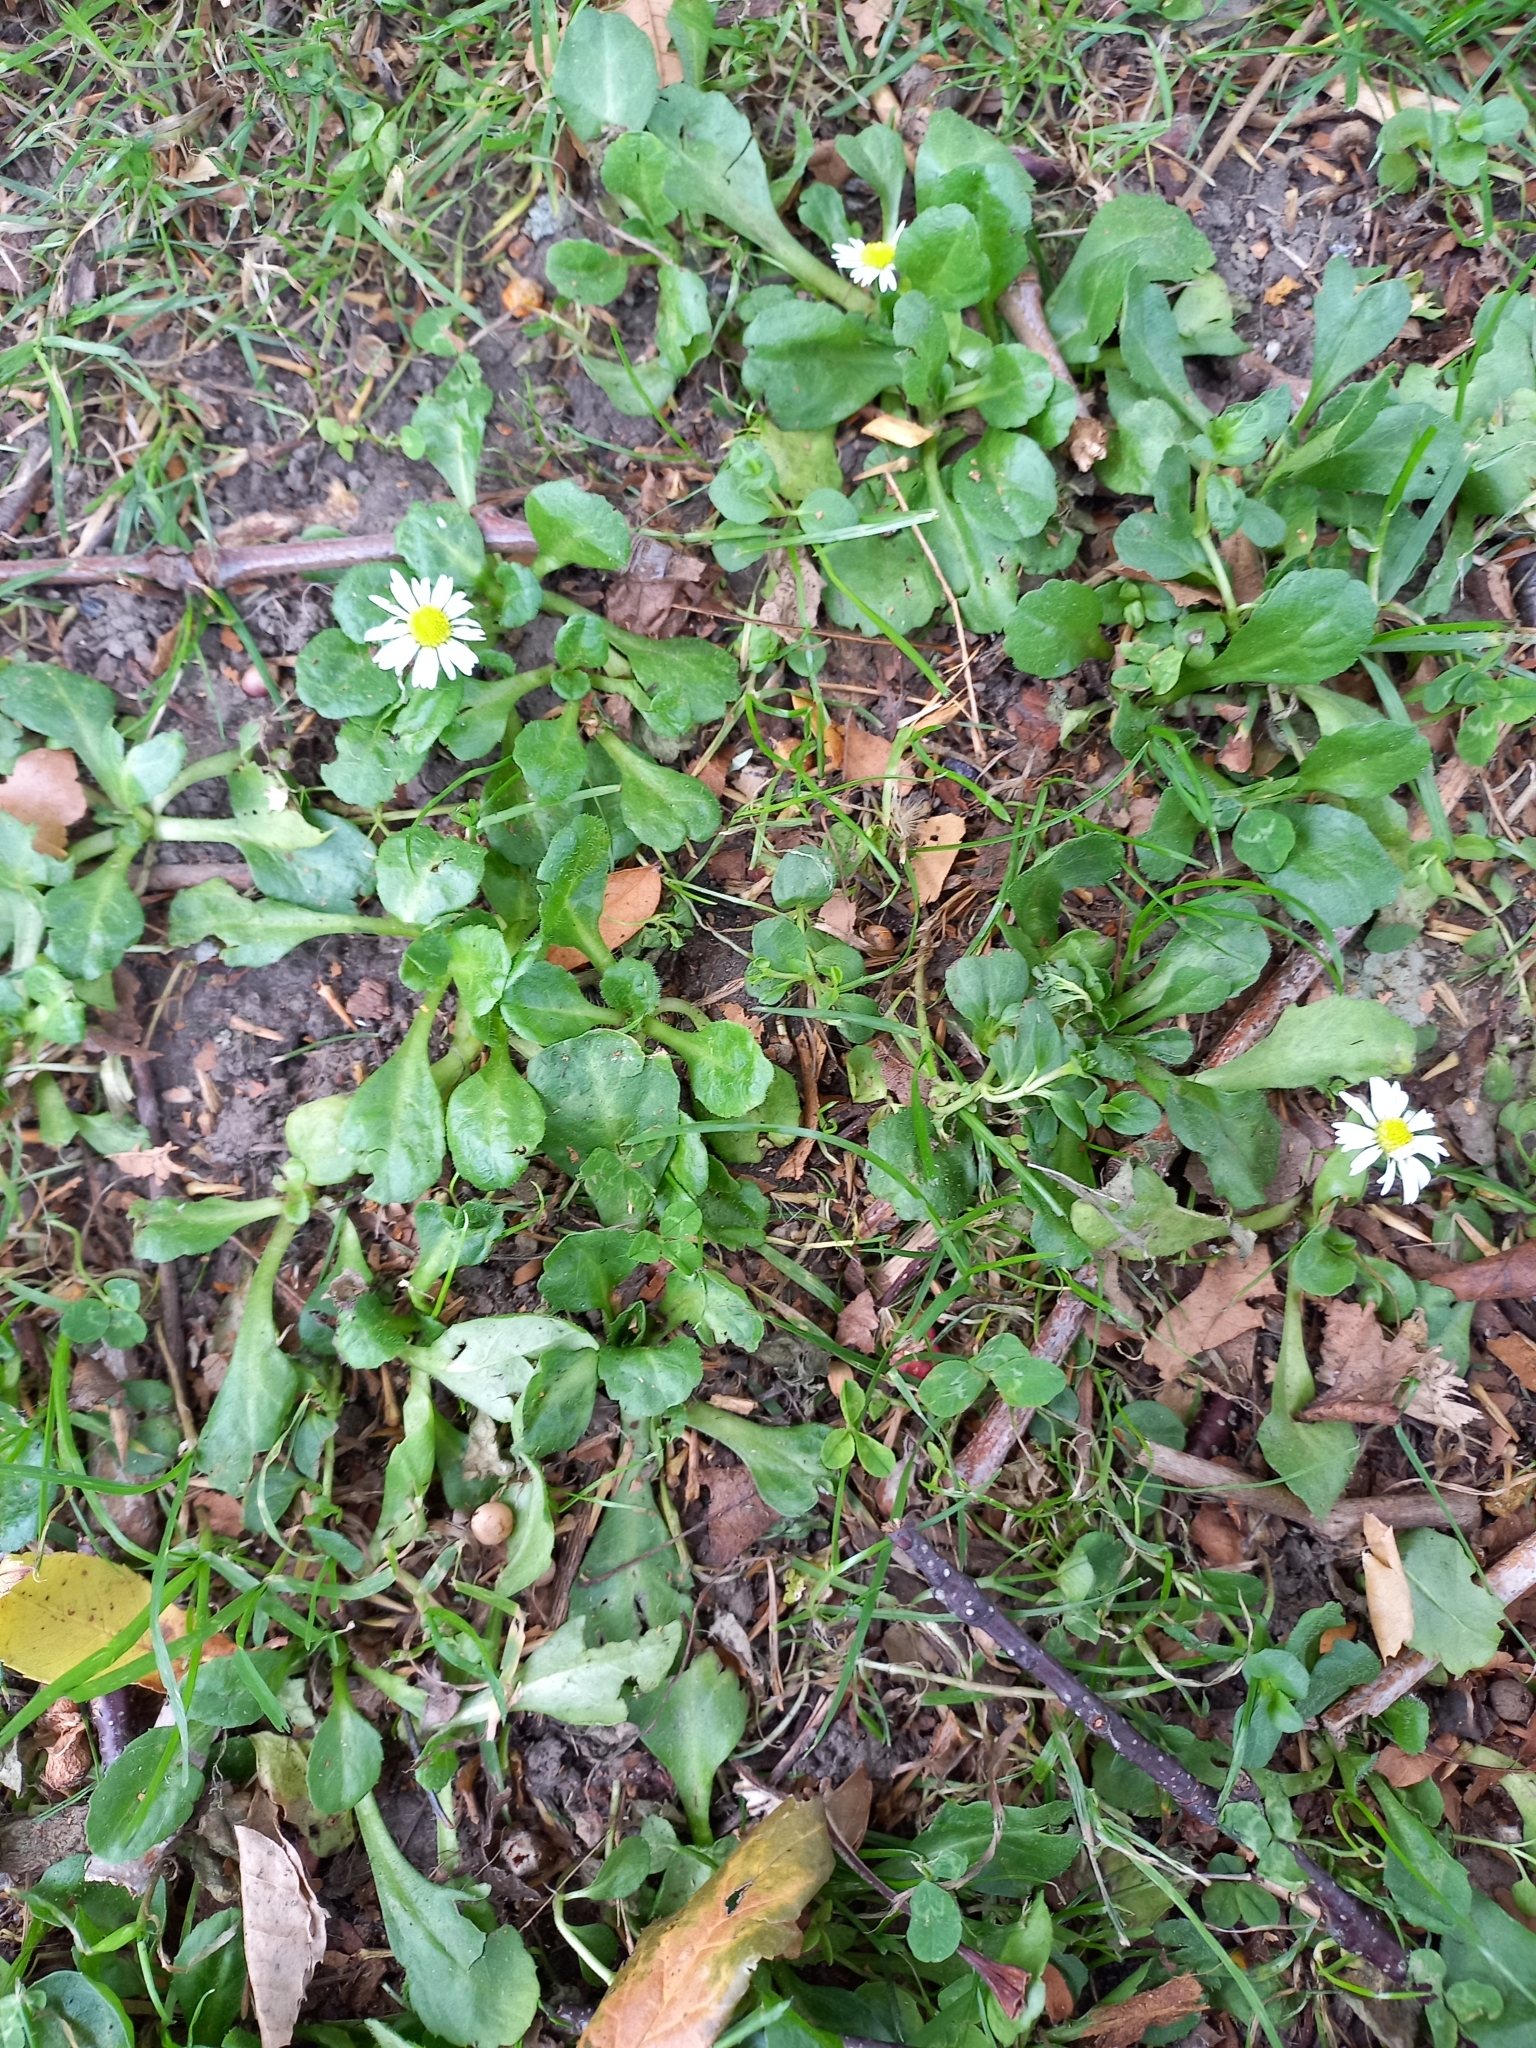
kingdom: Plantae
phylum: Tracheophyta
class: Magnoliopsida
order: Asterales
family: Asteraceae
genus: Bellis
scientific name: Bellis perennis
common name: Lawndaisy
